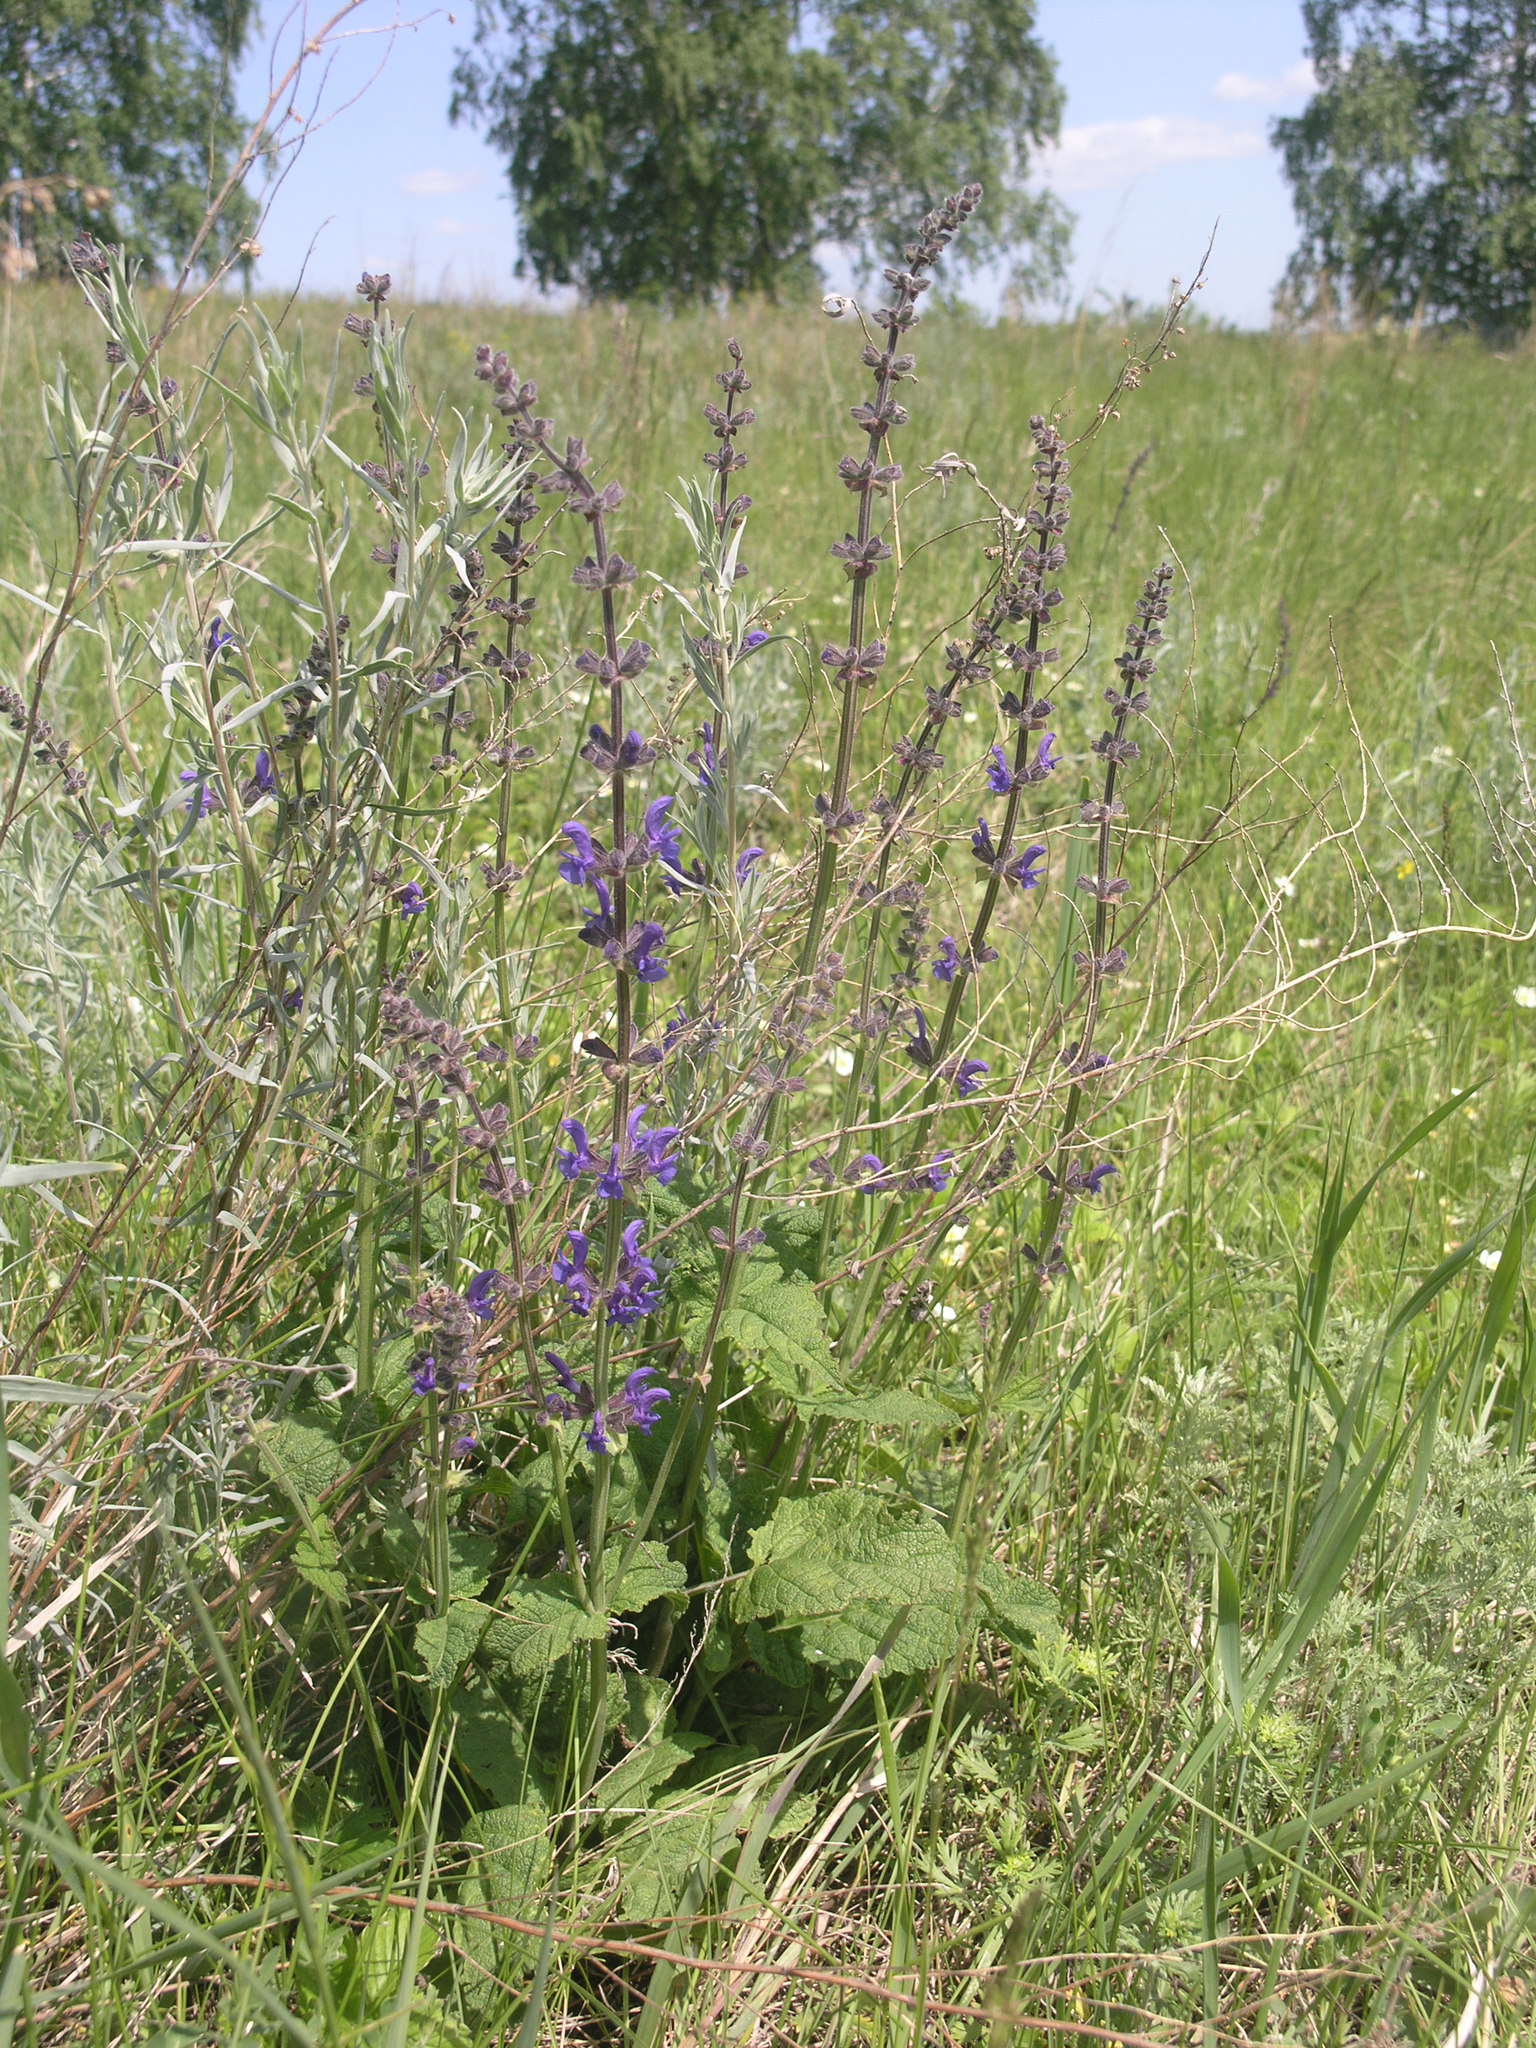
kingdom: Plantae
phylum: Tracheophyta
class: Magnoliopsida
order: Lamiales
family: Lamiaceae
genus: Salvia
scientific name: Salvia dumetorum
